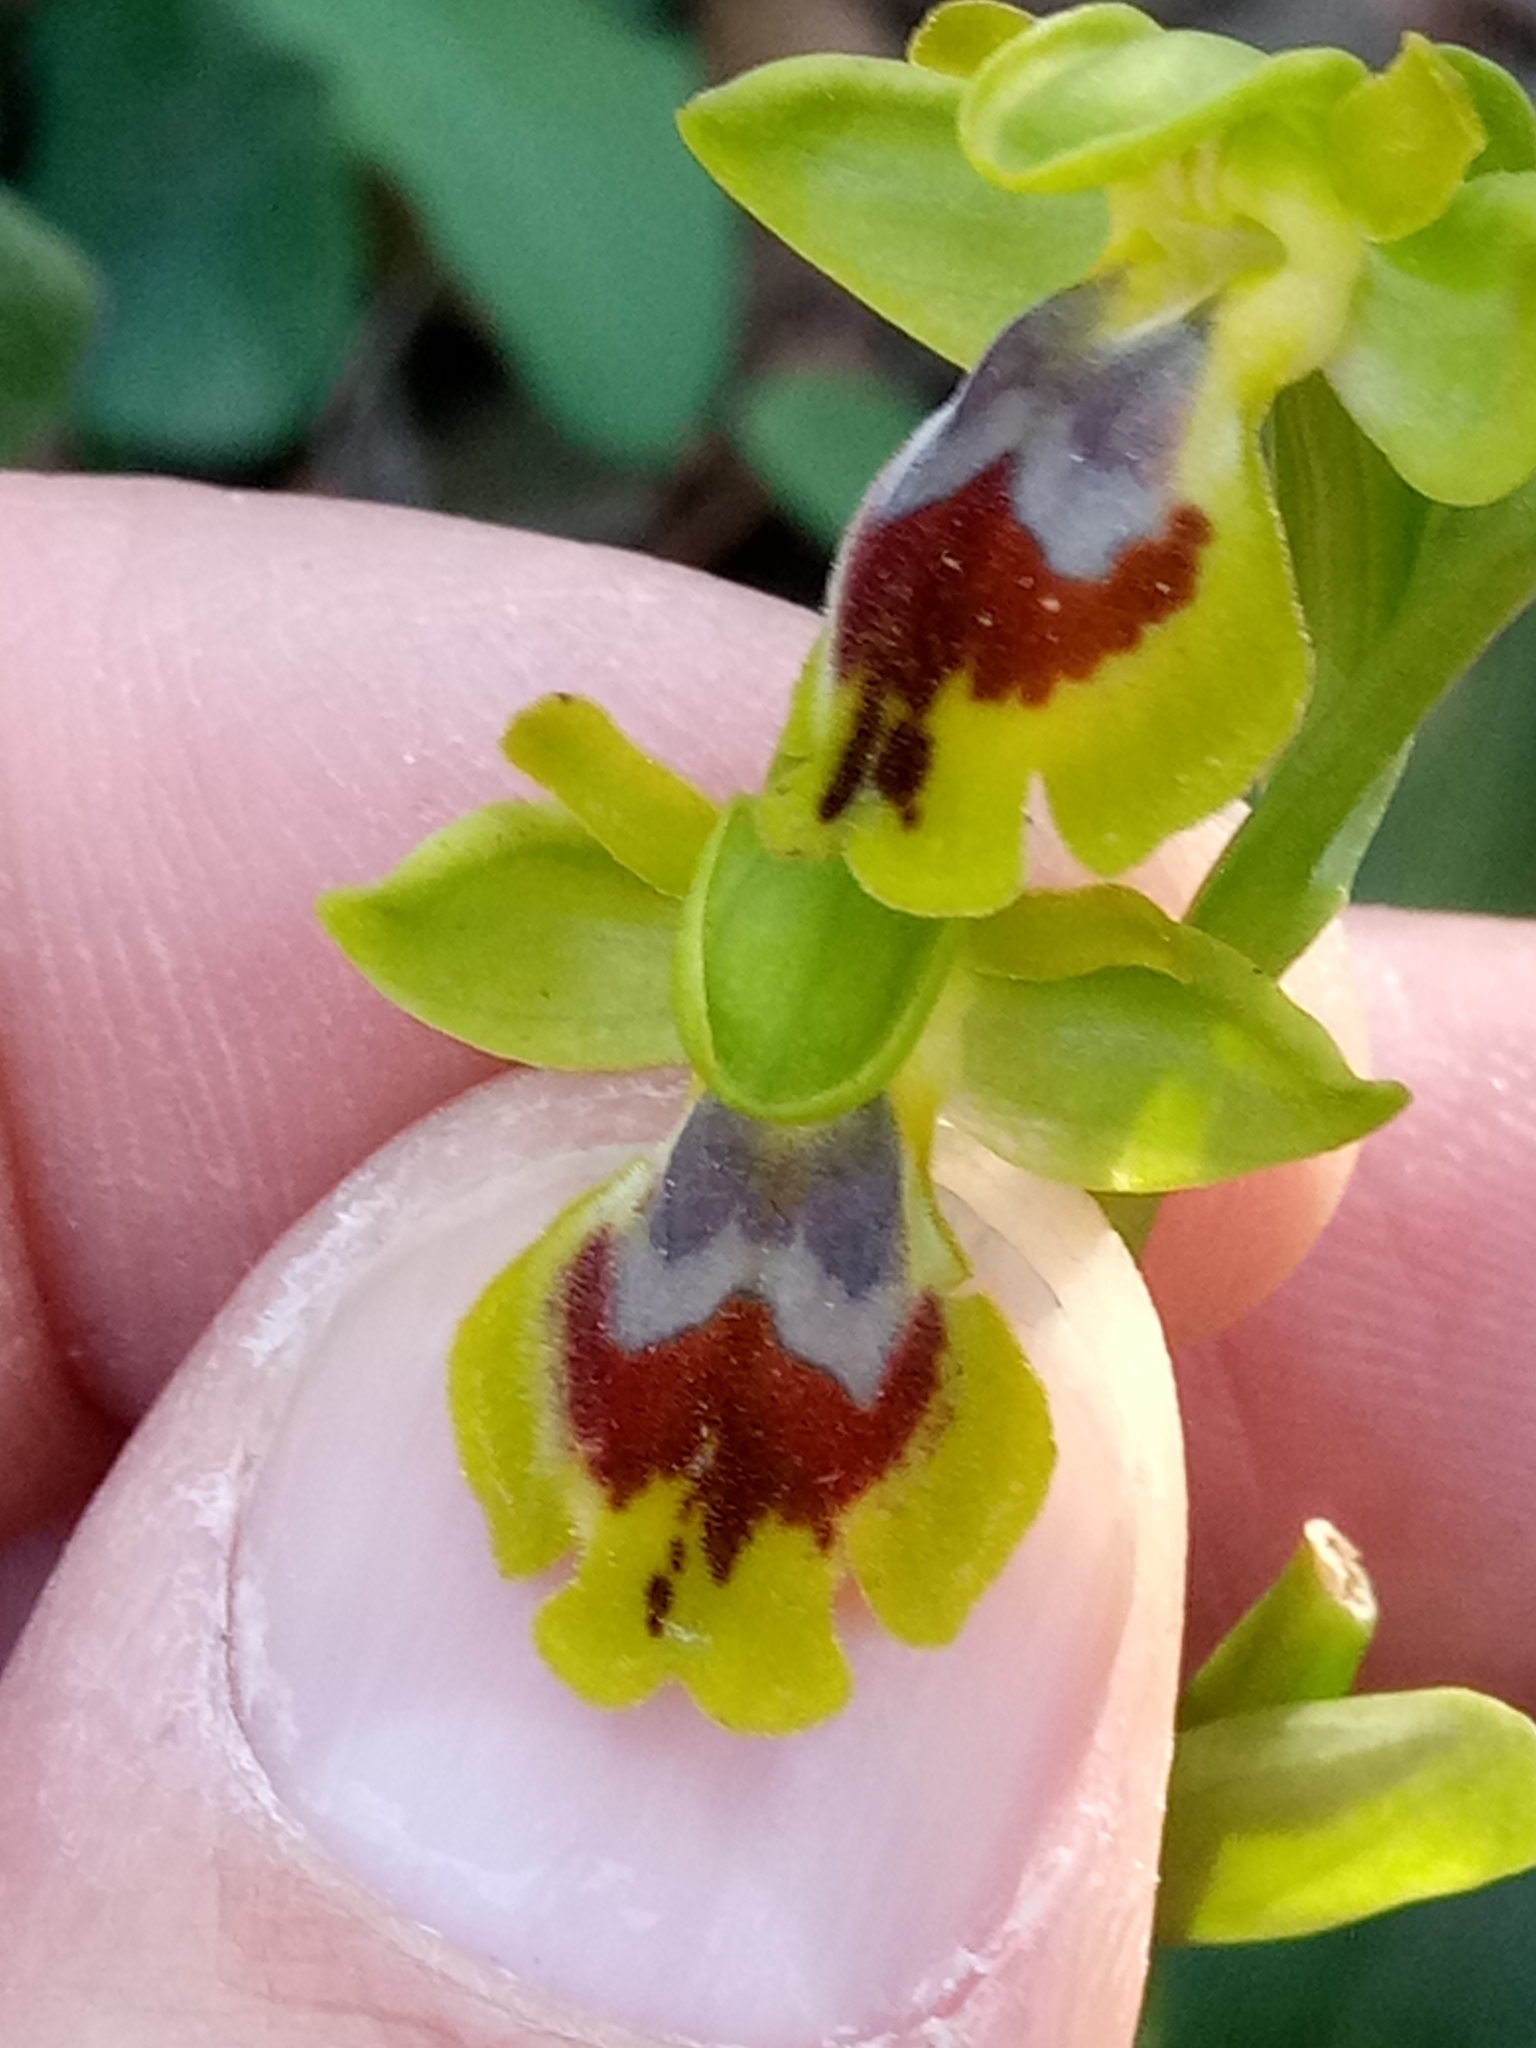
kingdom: Plantae
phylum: Tracheophyta
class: Liliopsida
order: Asparagales
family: Orchidaceae
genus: Ophrys
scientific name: Ophrys battandieri
